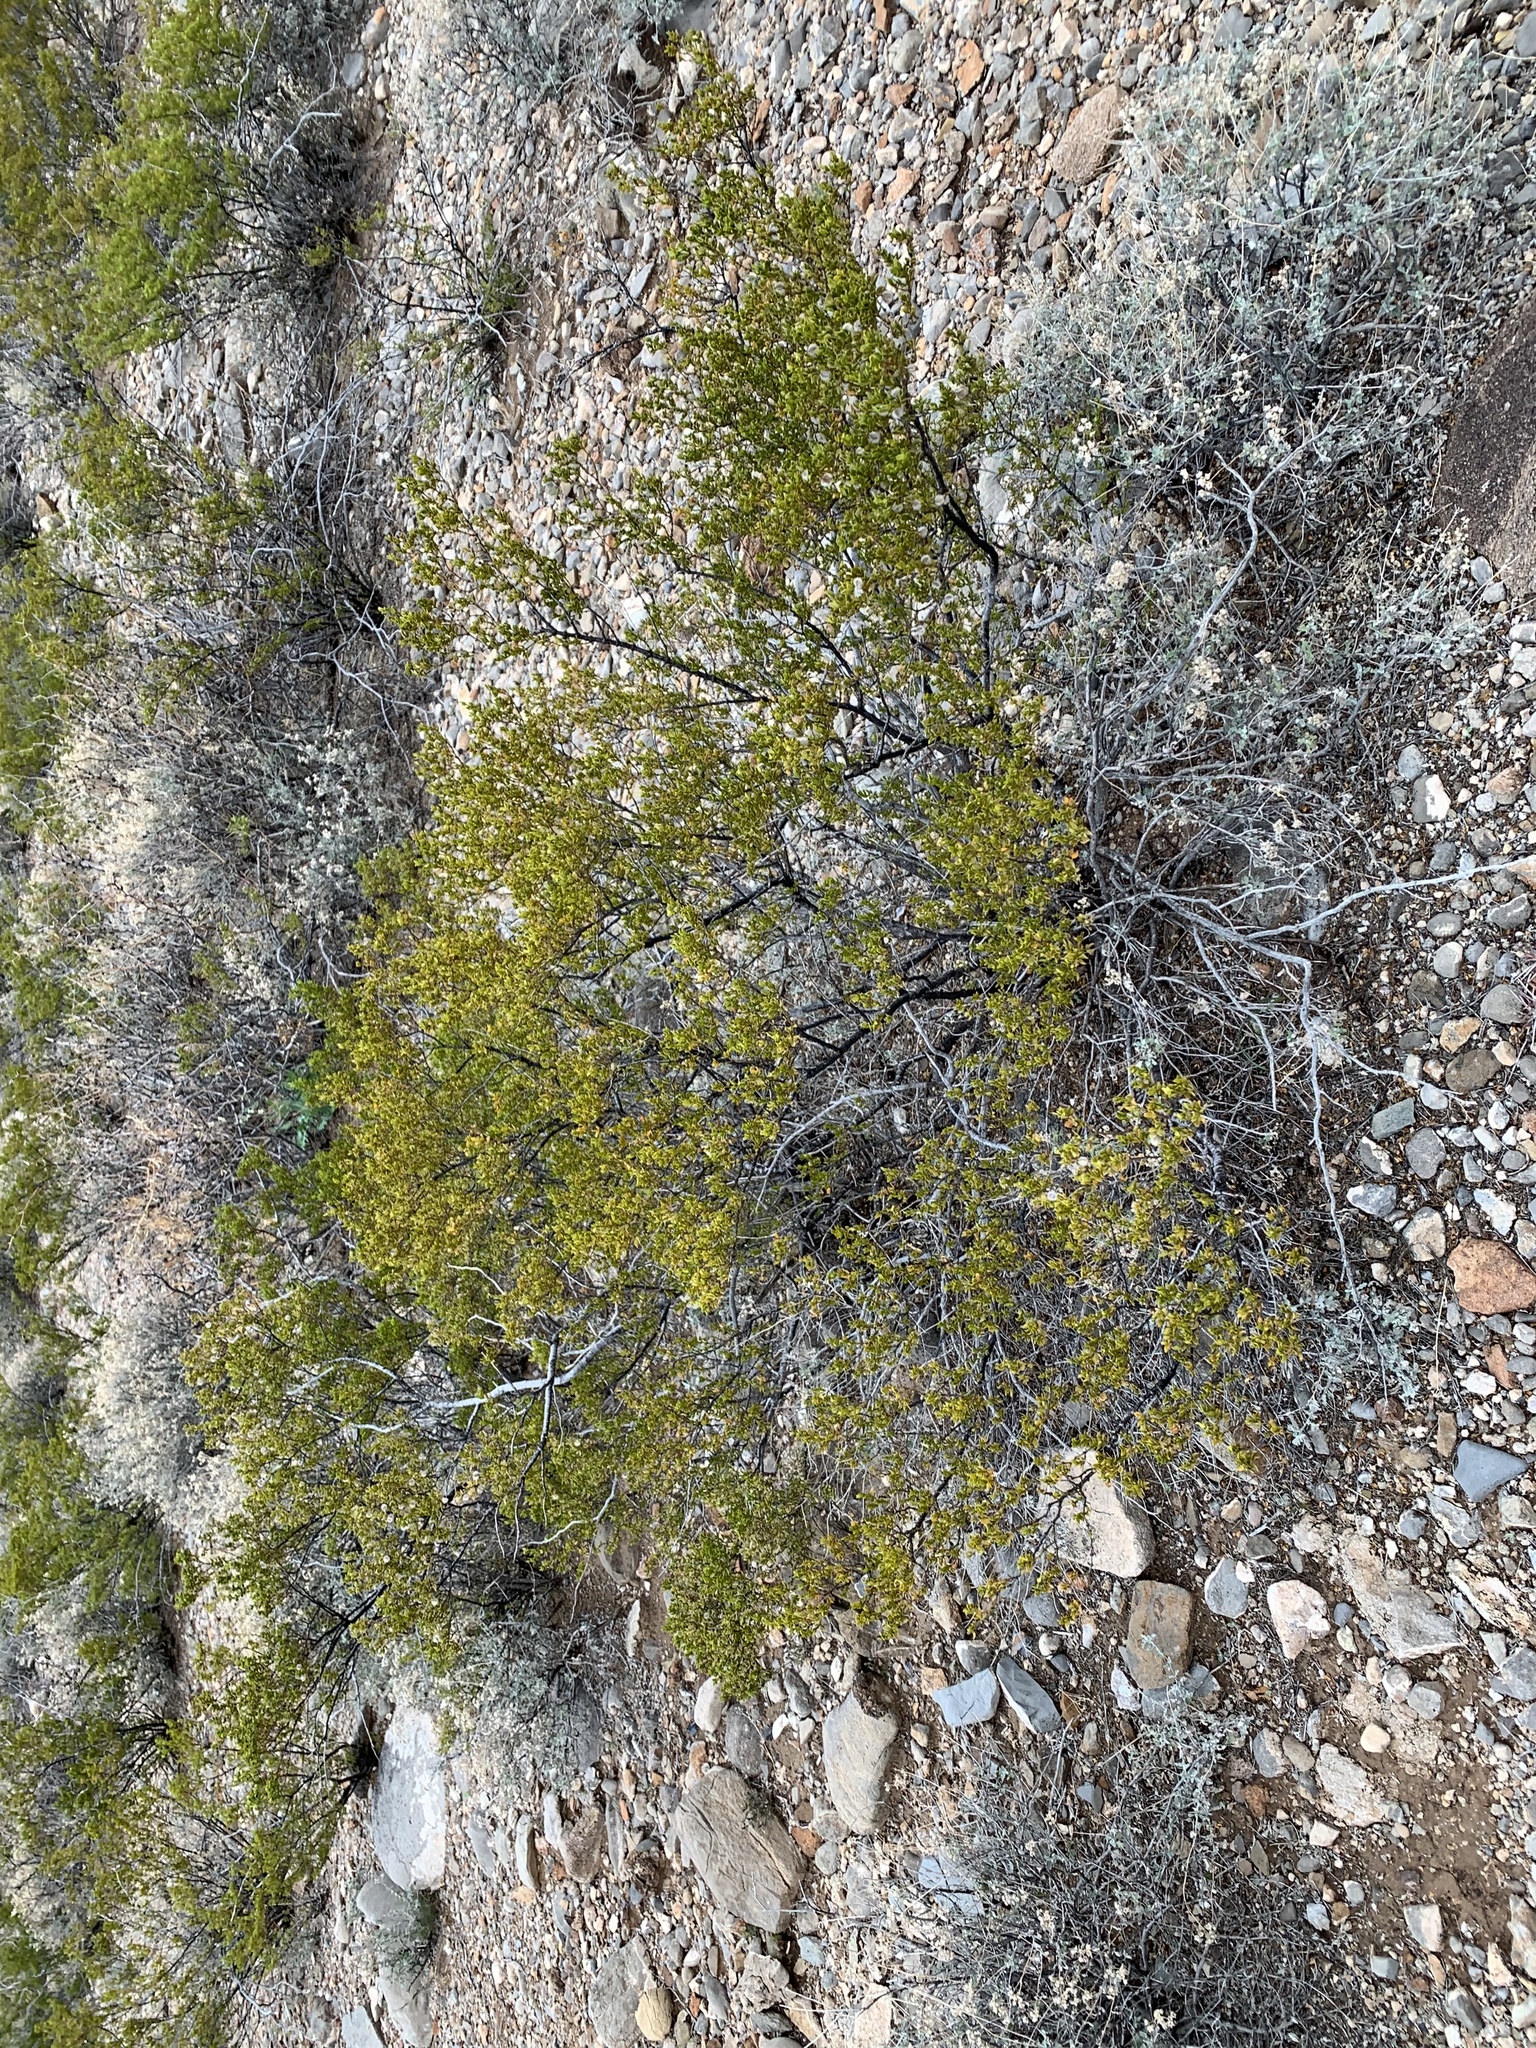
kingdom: Plantae
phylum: Tracheophyta
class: Magnoliopsida
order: Zygophyllales
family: Zygophyllaceae
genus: Larrea
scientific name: Larrea tridentata
